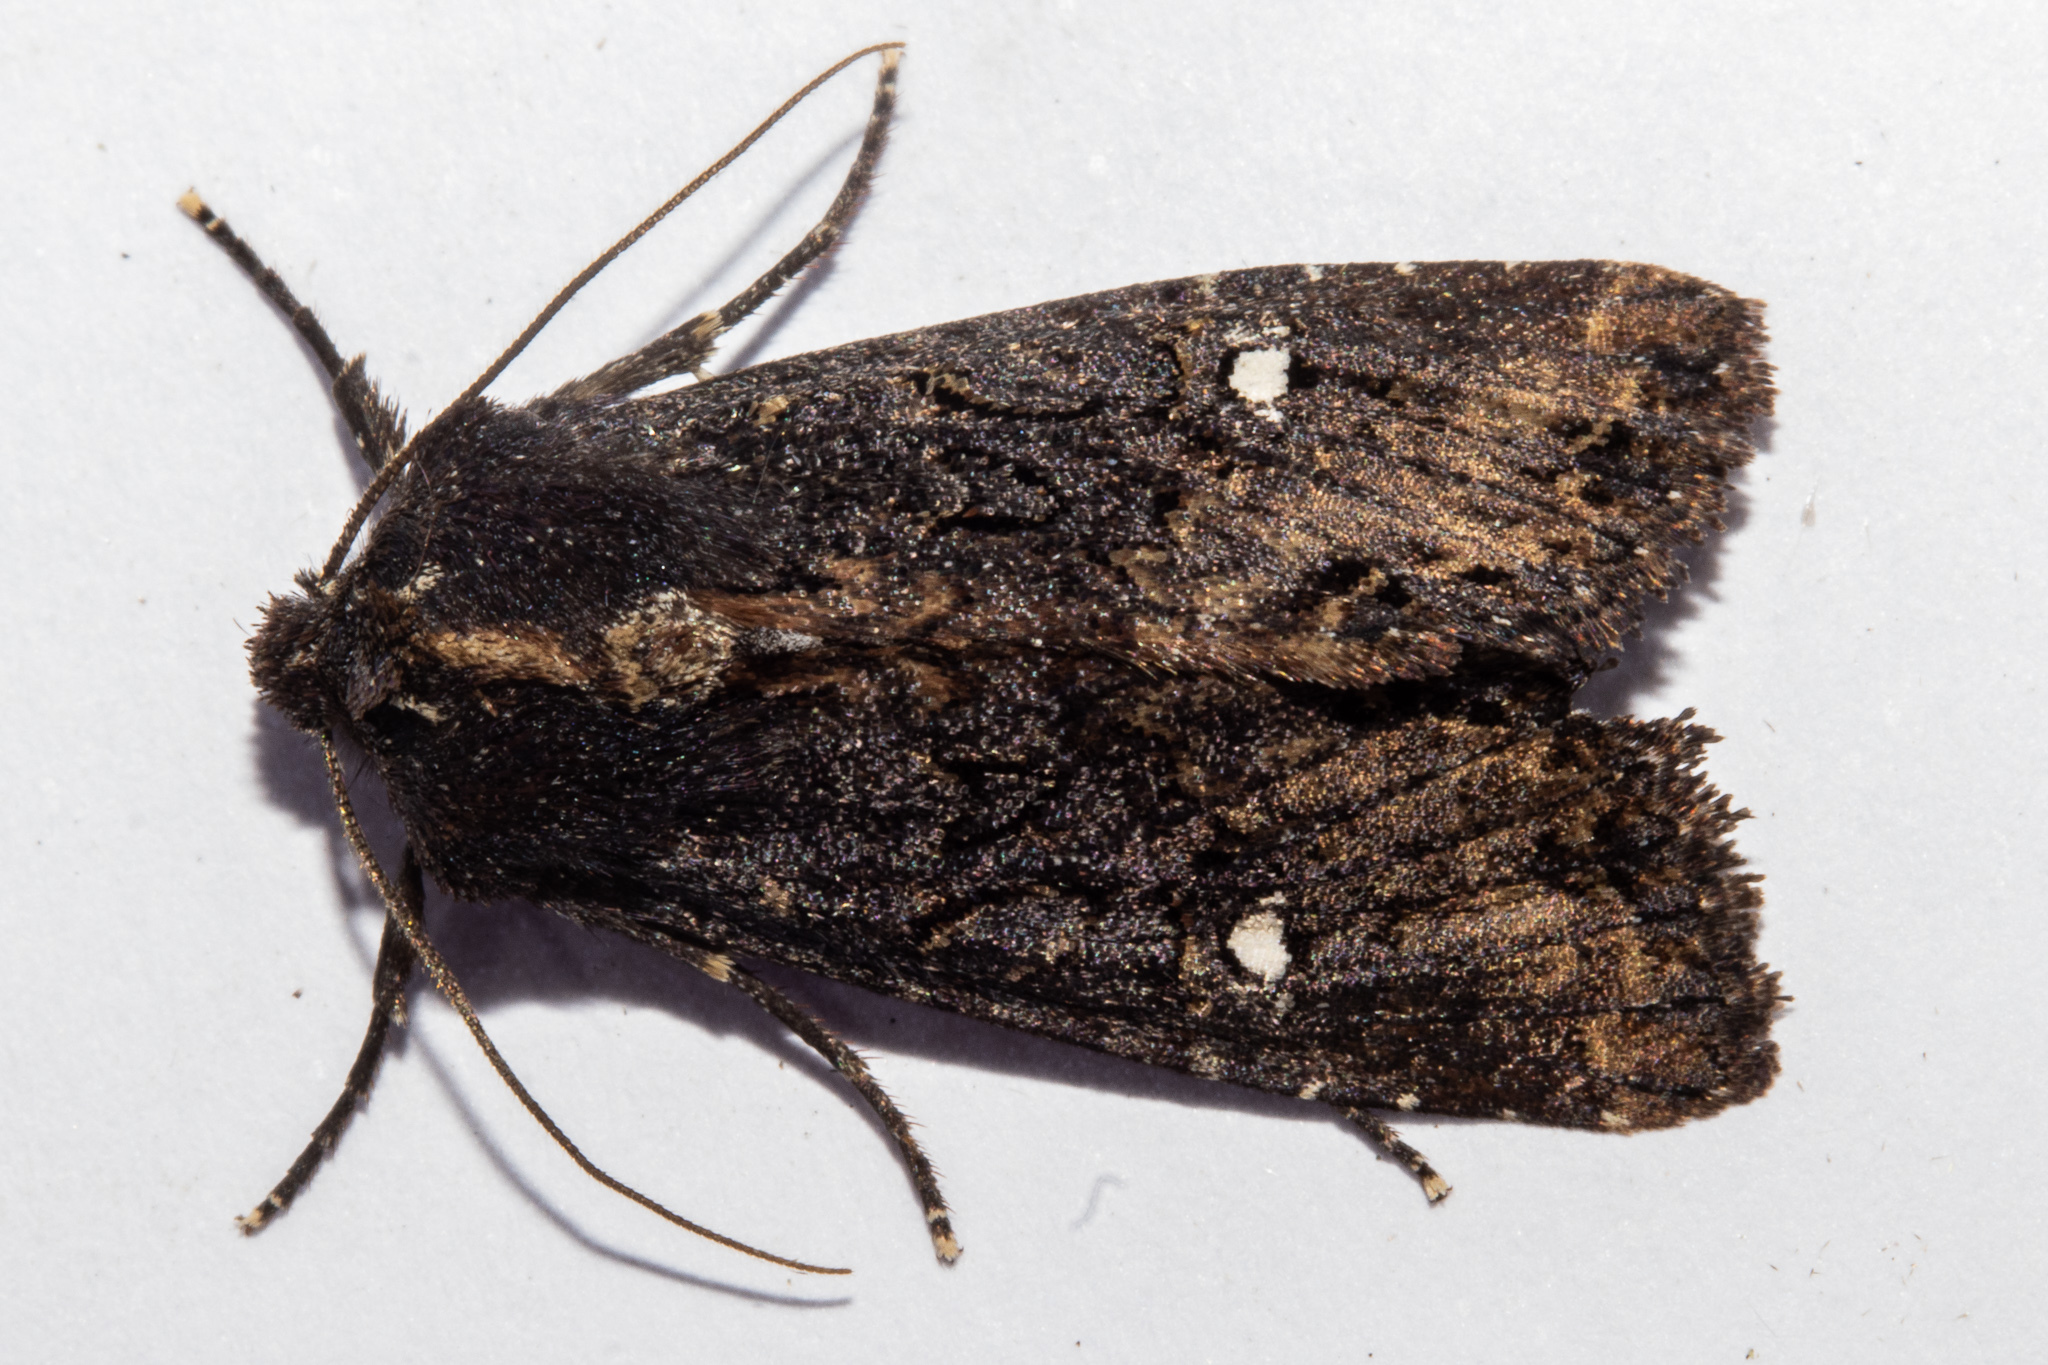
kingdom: Animalia
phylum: Arthropoda
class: Insecta
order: Lepidoptera
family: Noctuidae
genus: Meterana
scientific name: Meterana vitiosa
